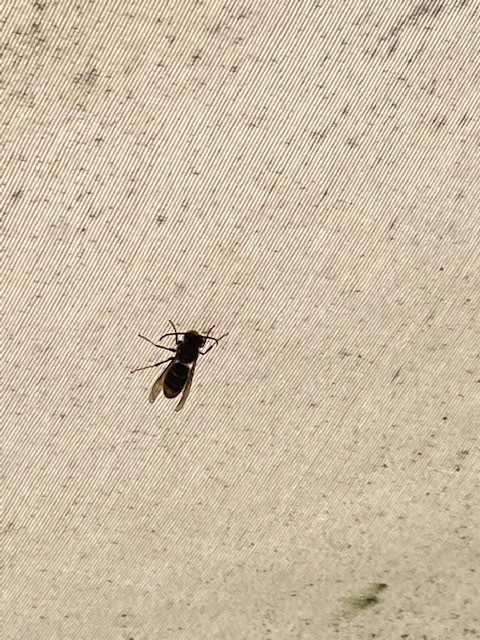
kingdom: Animalia
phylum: Arthropoda
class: Insecta
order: Hymenoptera
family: Vespidae
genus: Vespa
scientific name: Vespa velutina
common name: Asian hornet
